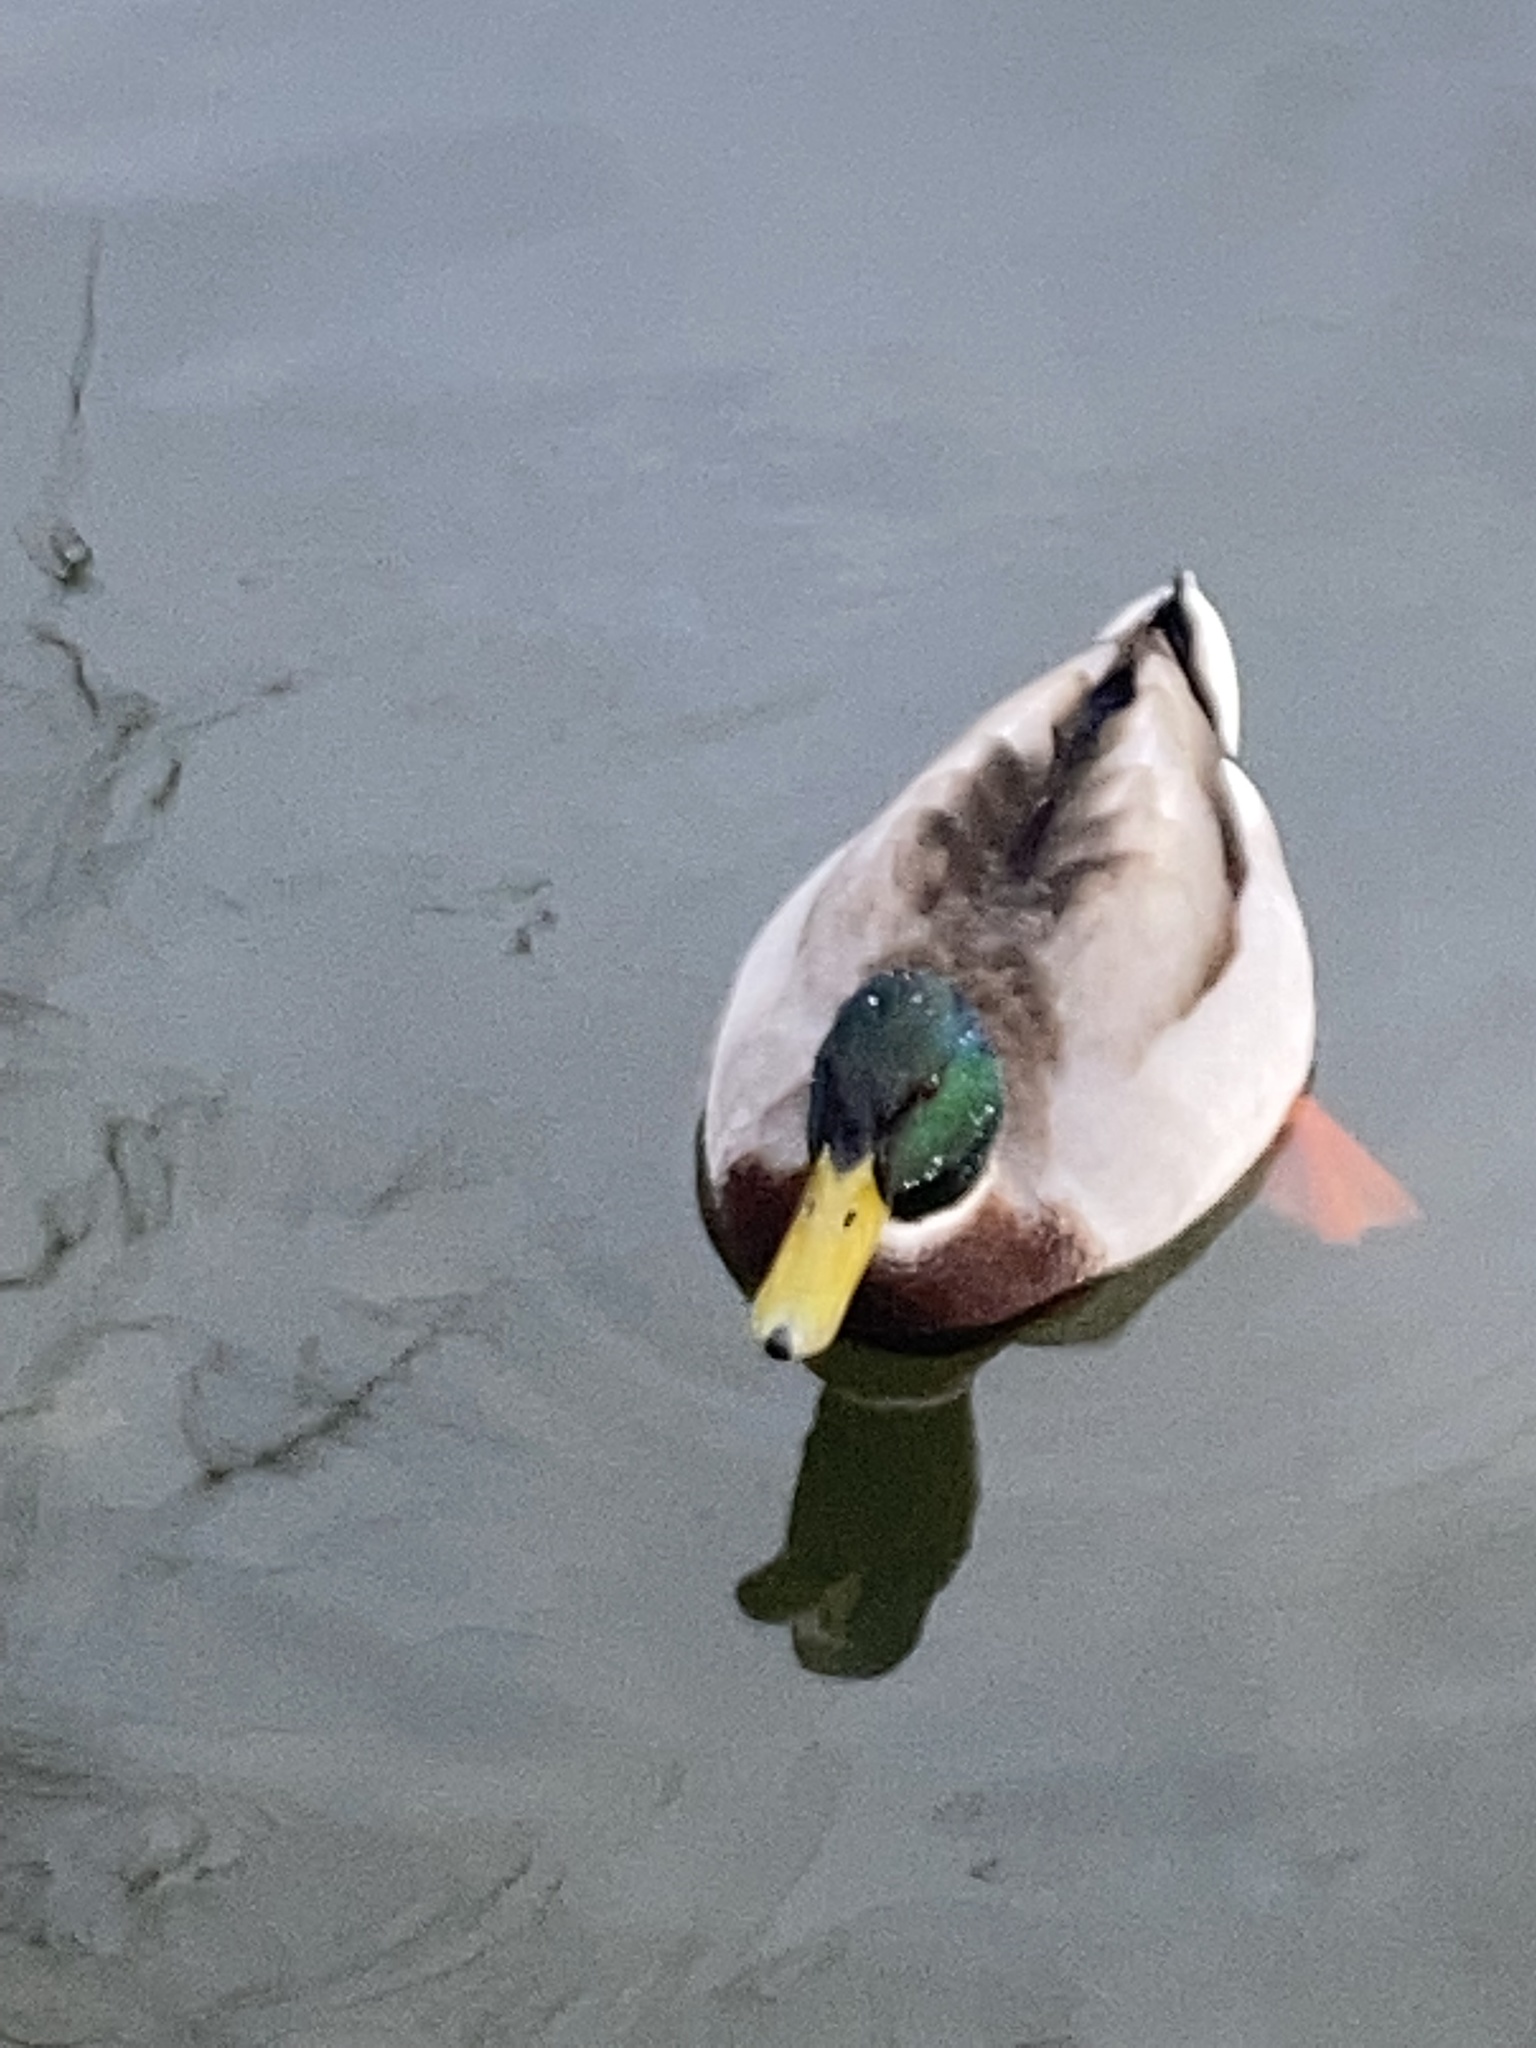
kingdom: Animalia
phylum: Chordata
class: Aves
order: Anseriformes
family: Anatidae
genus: Anas
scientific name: Anas platyrhynchos
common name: Mallard
